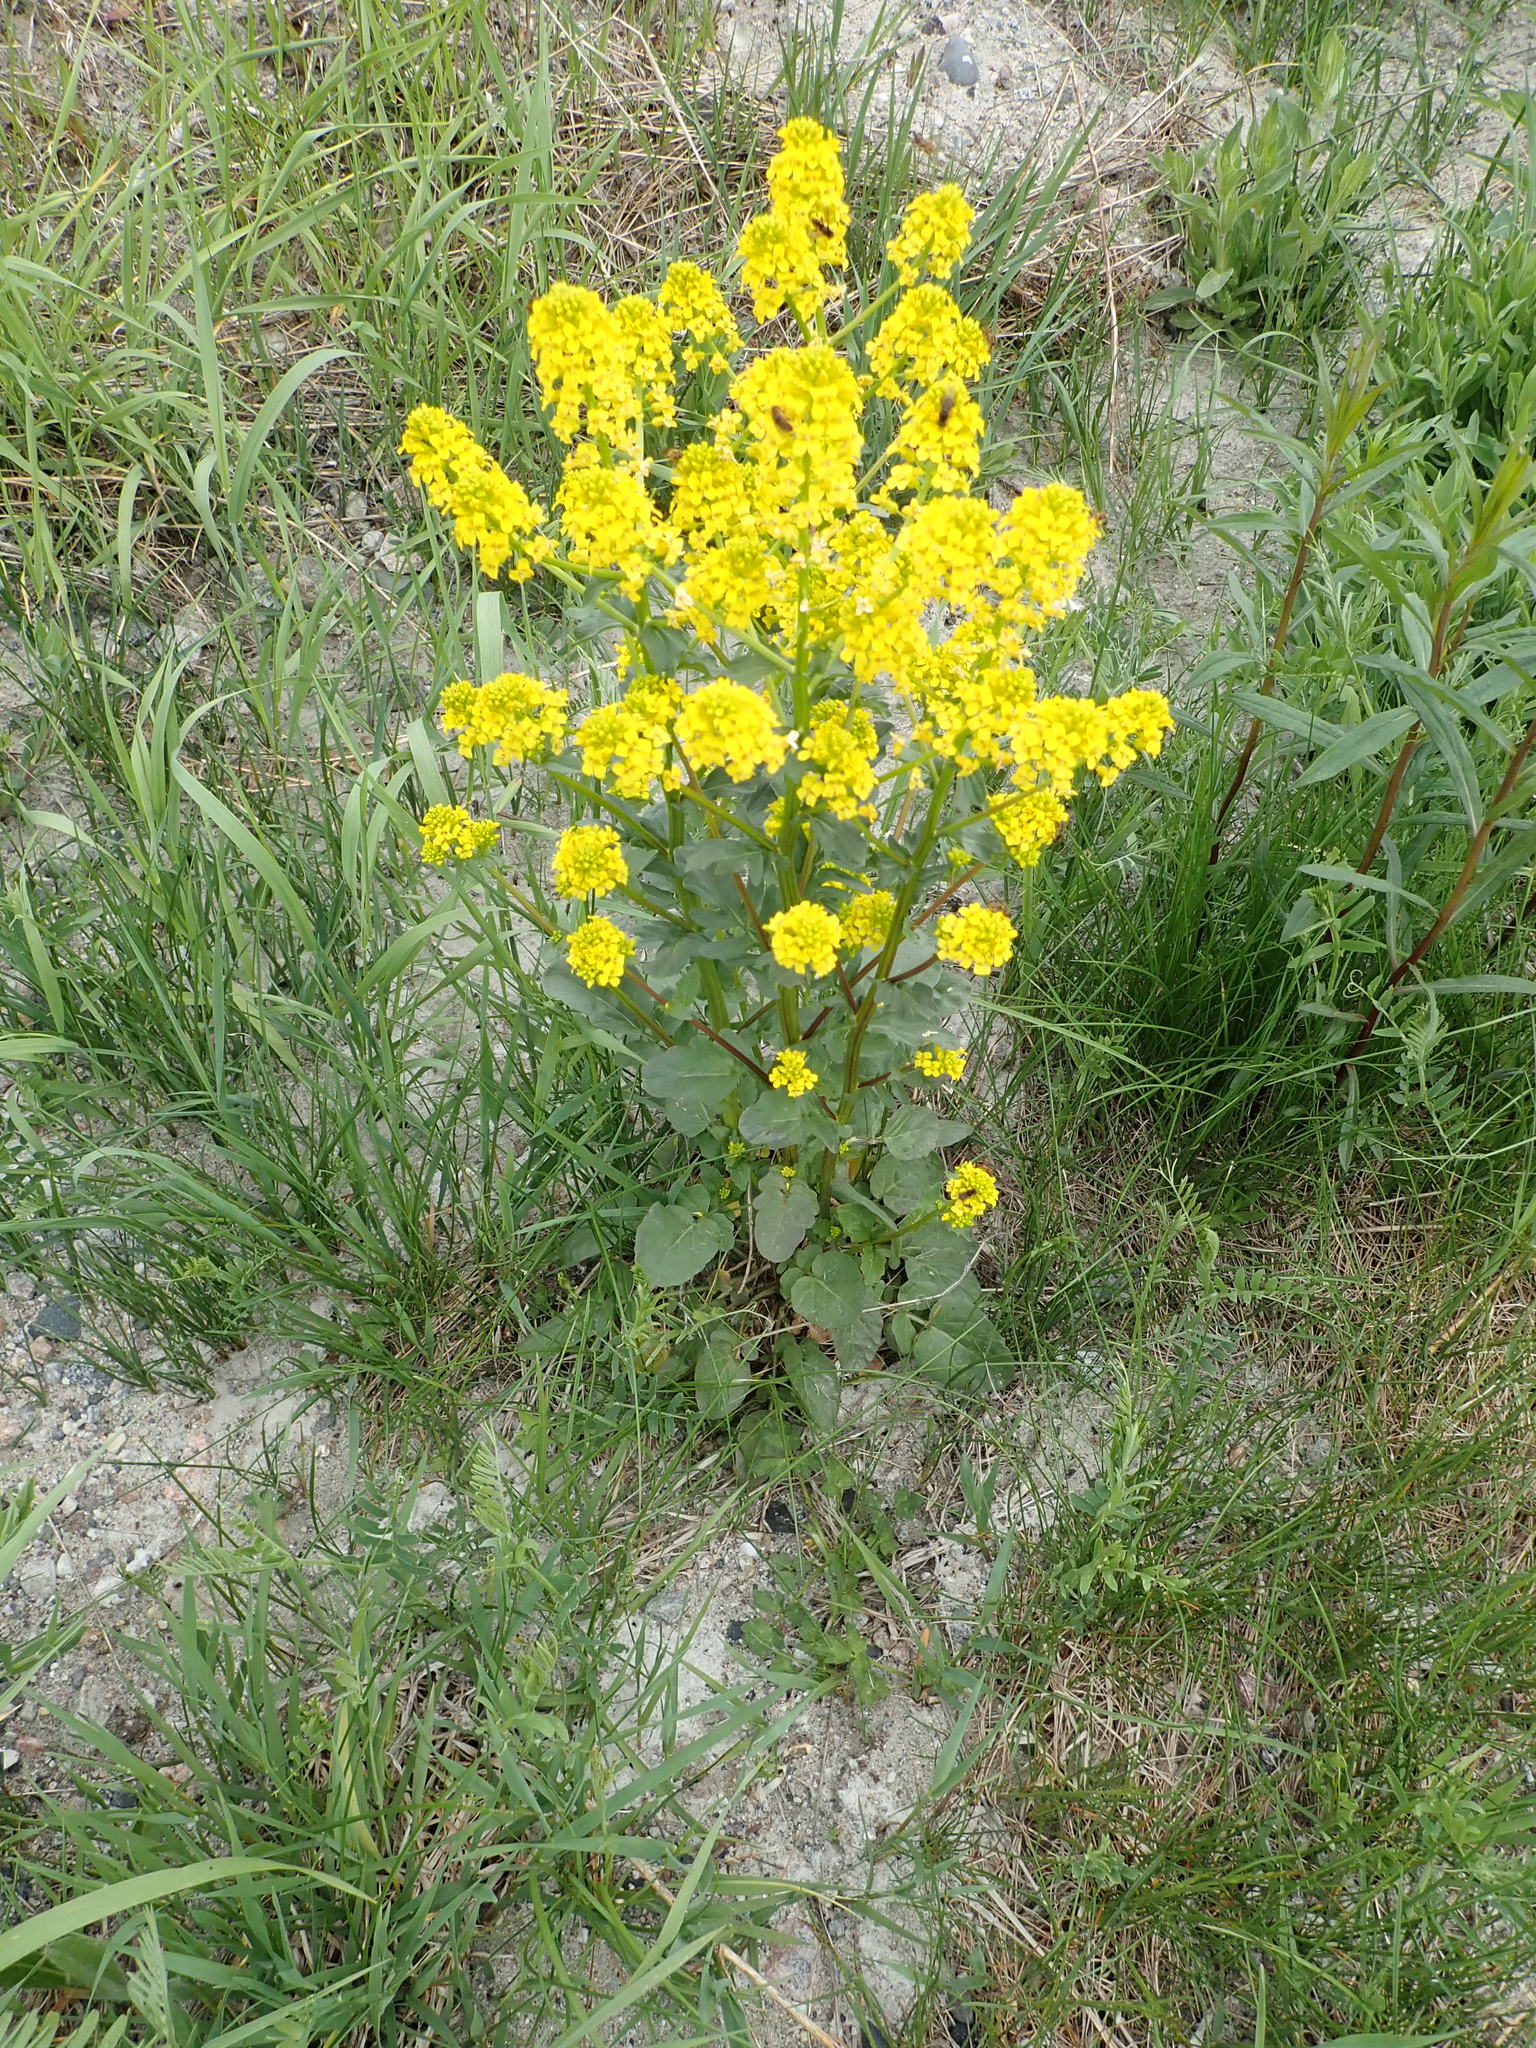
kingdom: Plantae
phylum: Tracheophyta
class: Magnoliopsida
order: Brassicales
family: Brassicaceae
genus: Barbarea
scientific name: Barbarea vulgaris
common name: Cressy-greens
